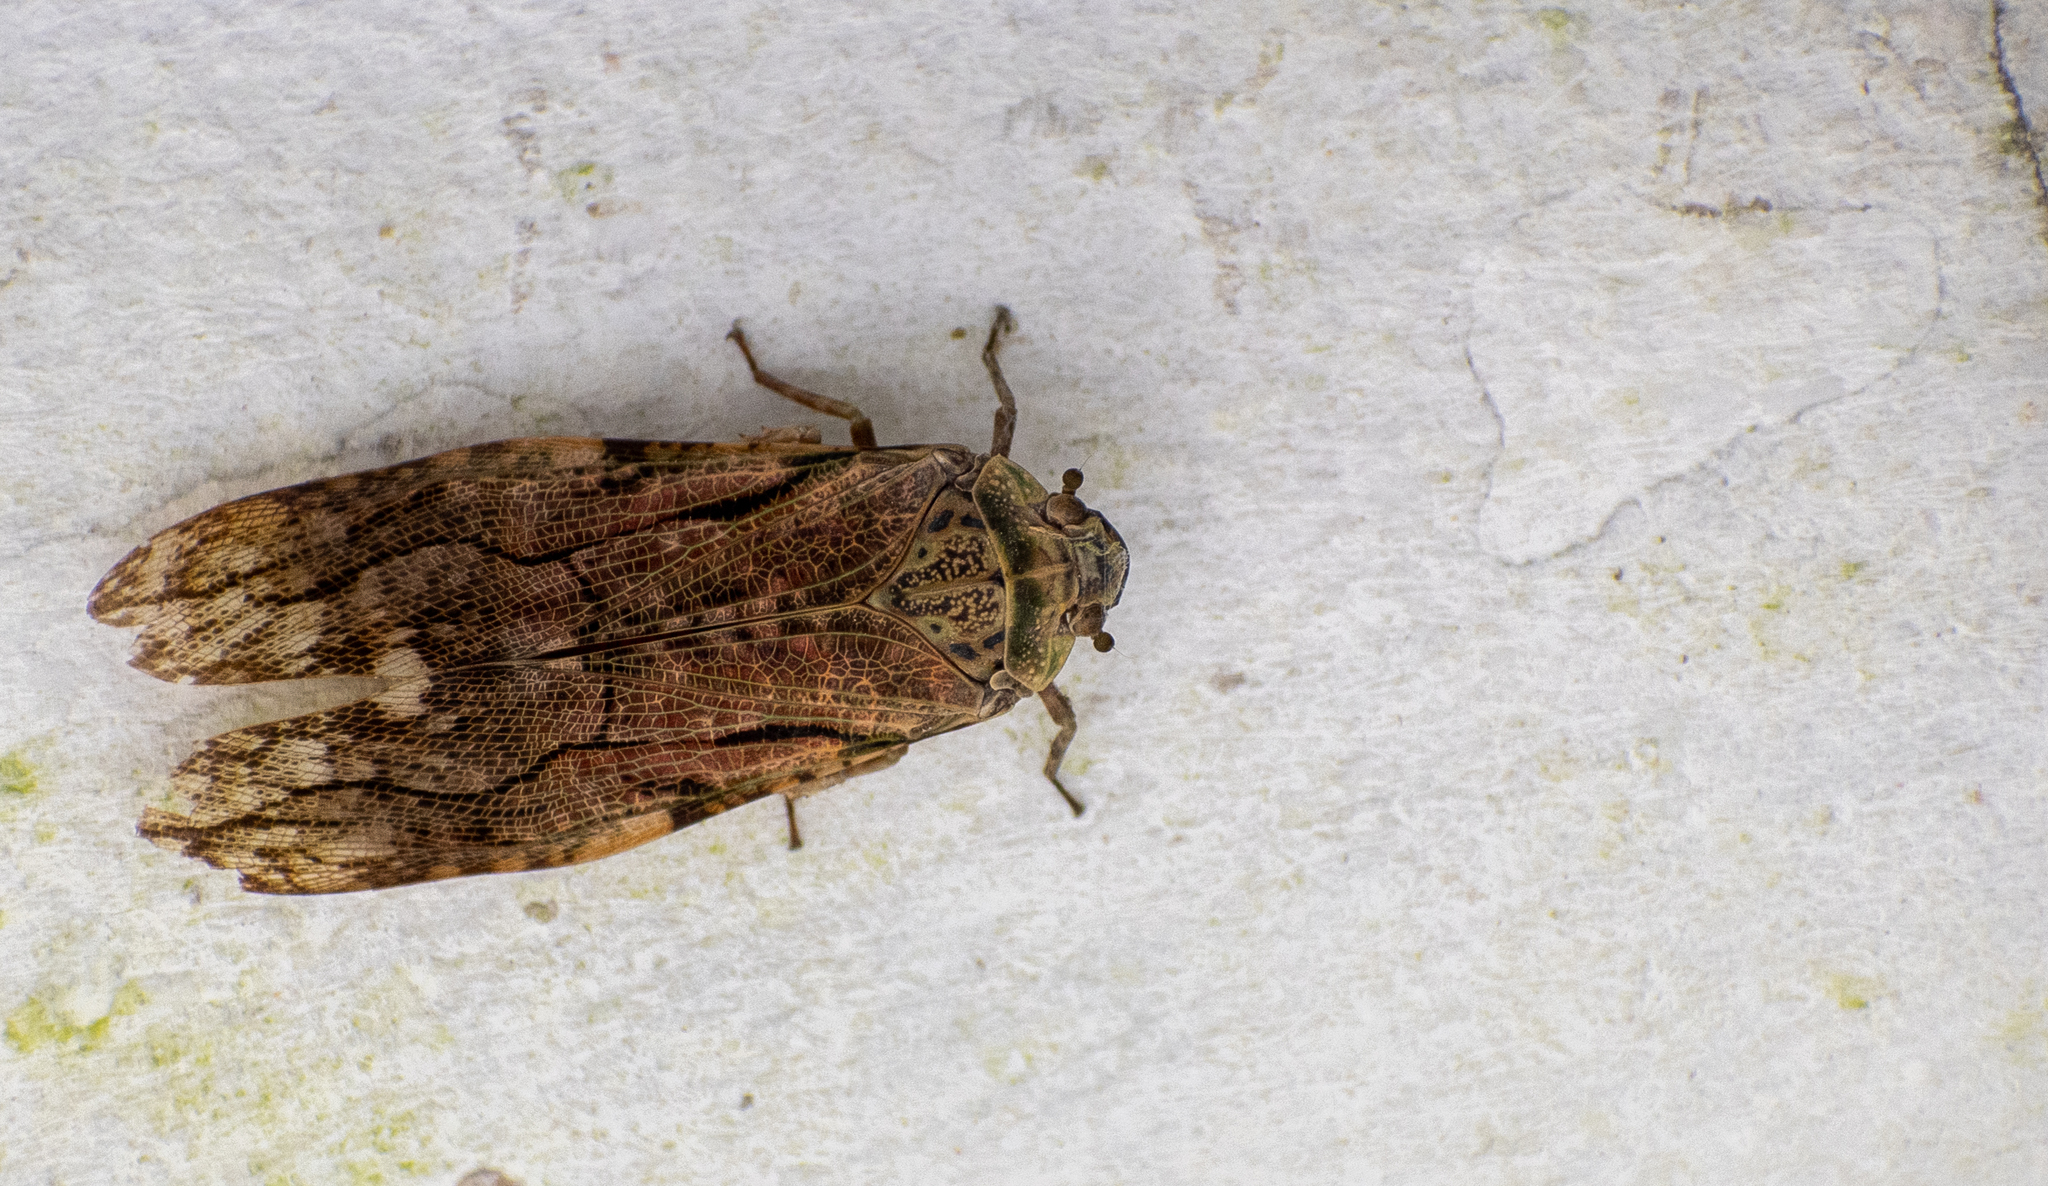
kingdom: Animalia
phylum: Arthropoda
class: Insecta
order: Hemiptera
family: Fulgoridae
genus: Aracynthus
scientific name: Aracynthus sanguineus
